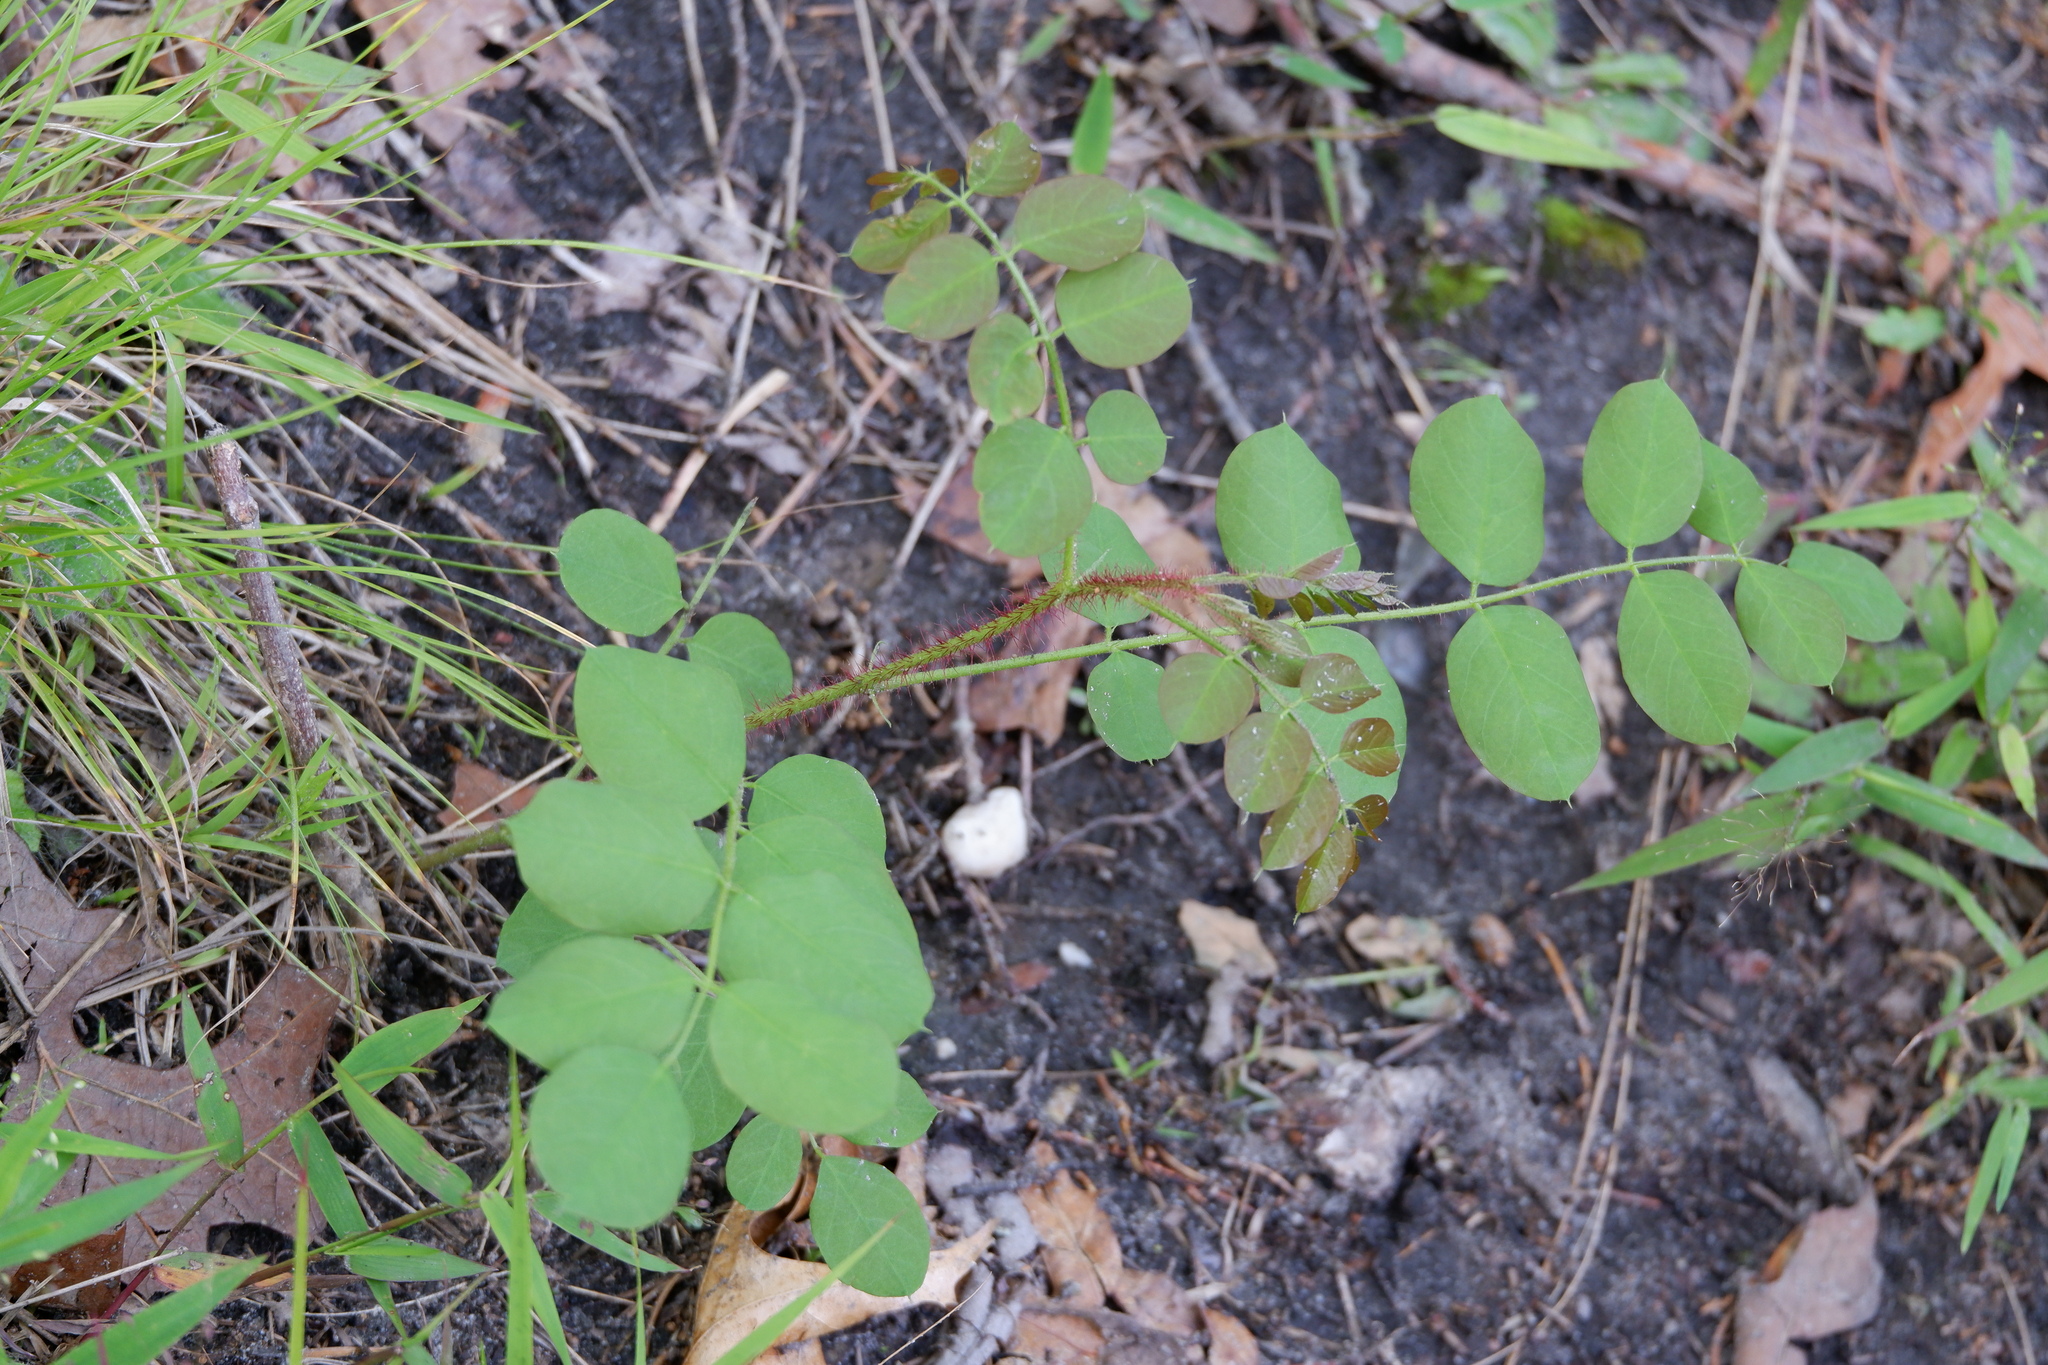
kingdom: Plantae
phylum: Tracheophyta
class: Magnoliopsida
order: Fabales
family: Fabaceae
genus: Robinia
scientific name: Robinia hispida
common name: Bristly locust
